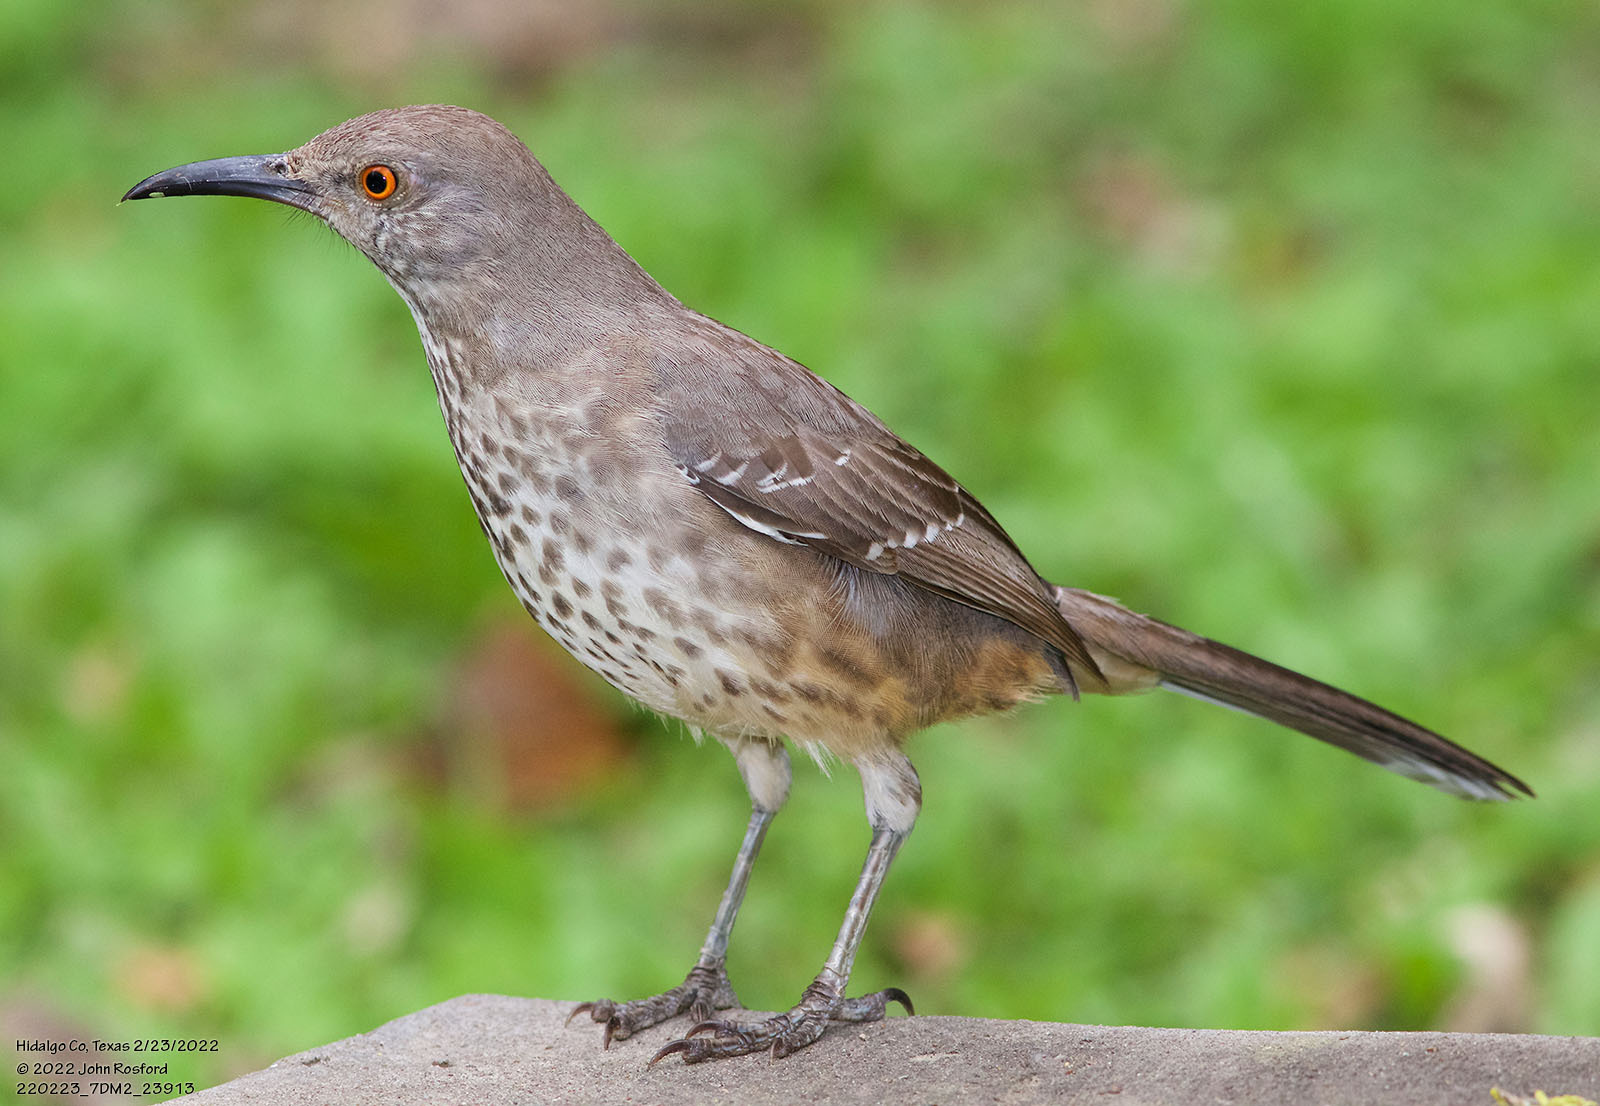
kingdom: Animalia
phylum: Chordata
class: Aves
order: Passeriformes
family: Mimidae
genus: Toxostoma
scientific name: Toxostoma curvirostre
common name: Curve-billed thrasher
